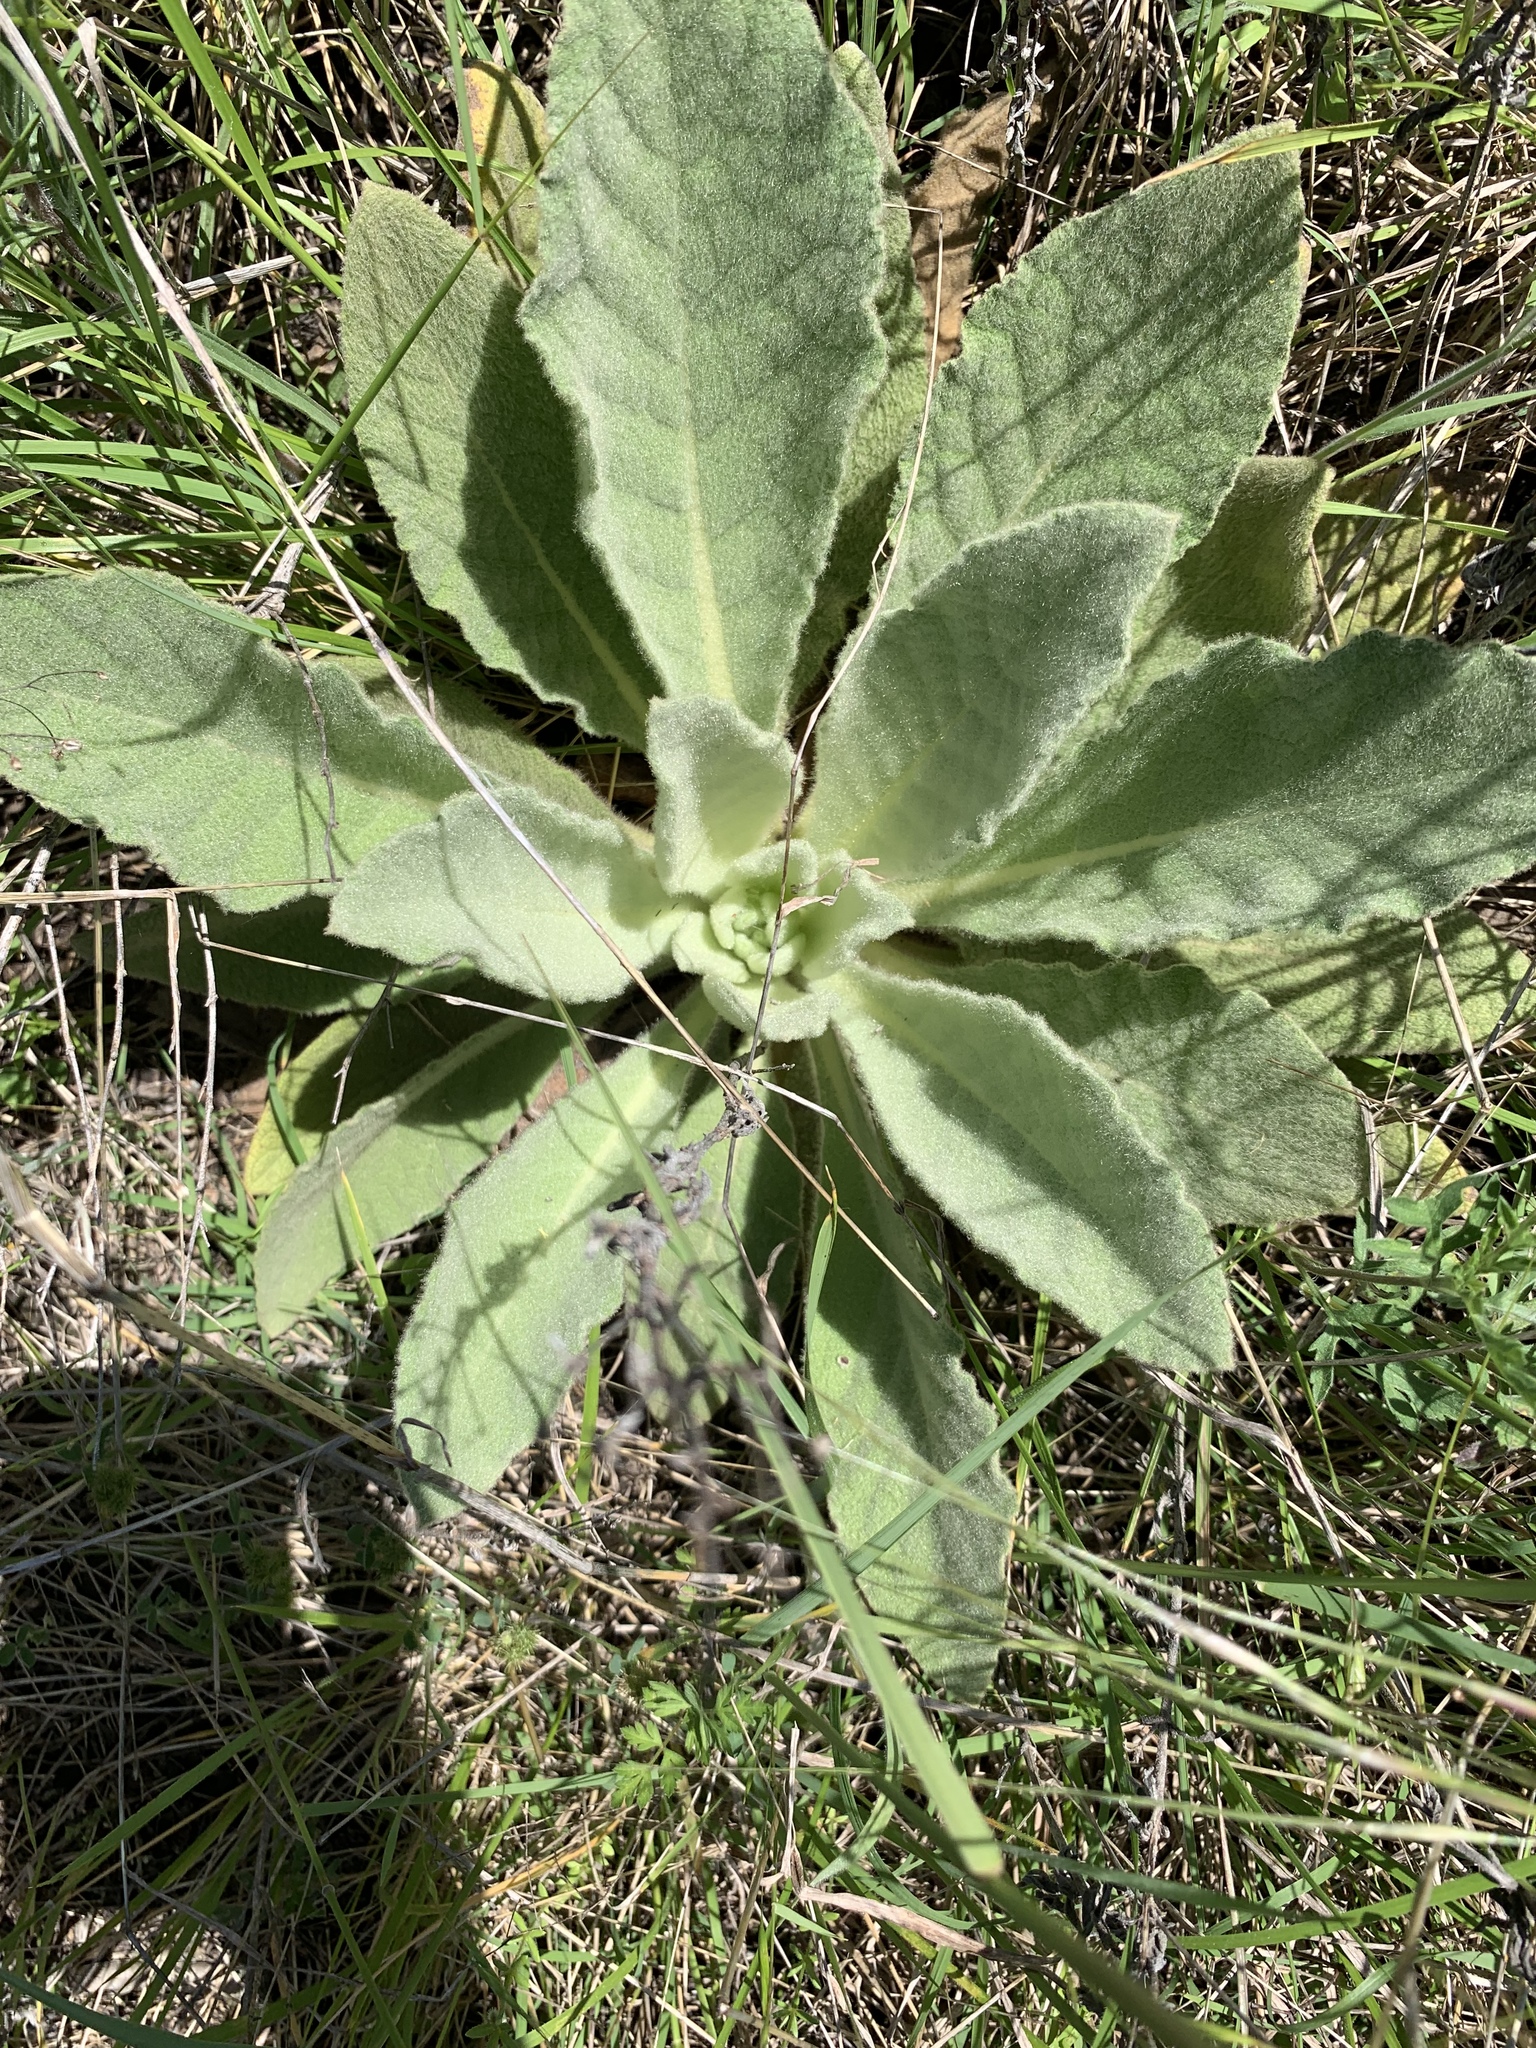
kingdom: Plantae
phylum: Tracheophyta
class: Magnoliopsida
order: Lamiales
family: Scrophulariaceae
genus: Verbascum
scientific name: Verbascum thapsus
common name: Common mullein
